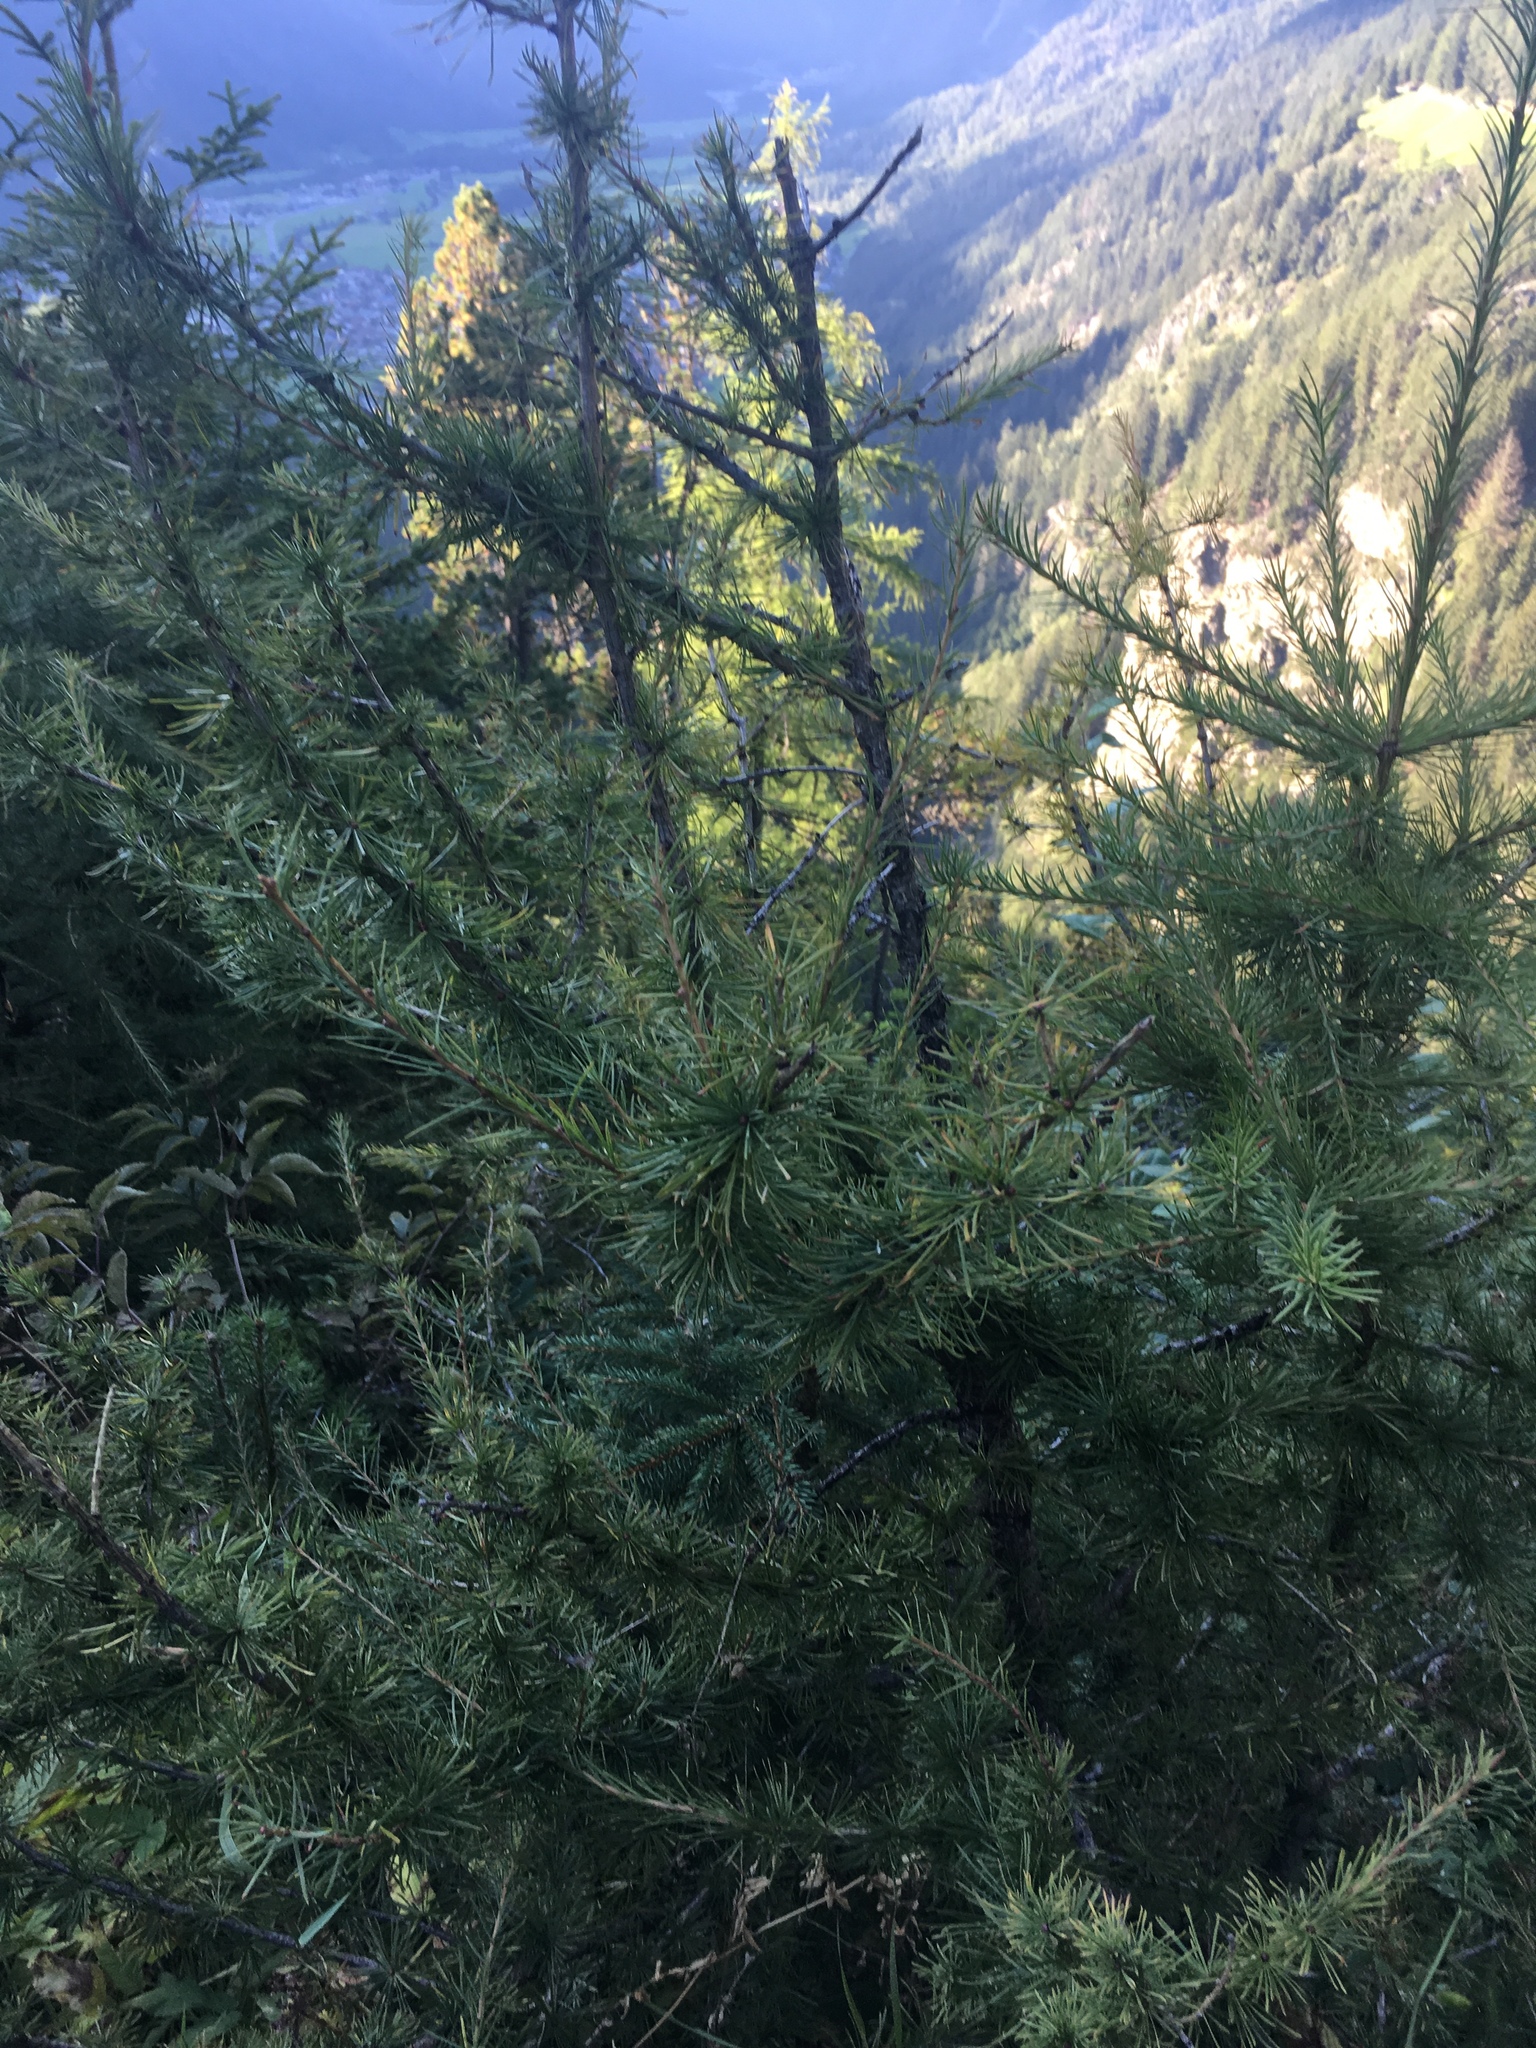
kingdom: Plantae
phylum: Tracheophyta
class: Pinopsida
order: Pinales
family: Pinaceae
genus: Larix
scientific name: Larix decidua
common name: European larch
